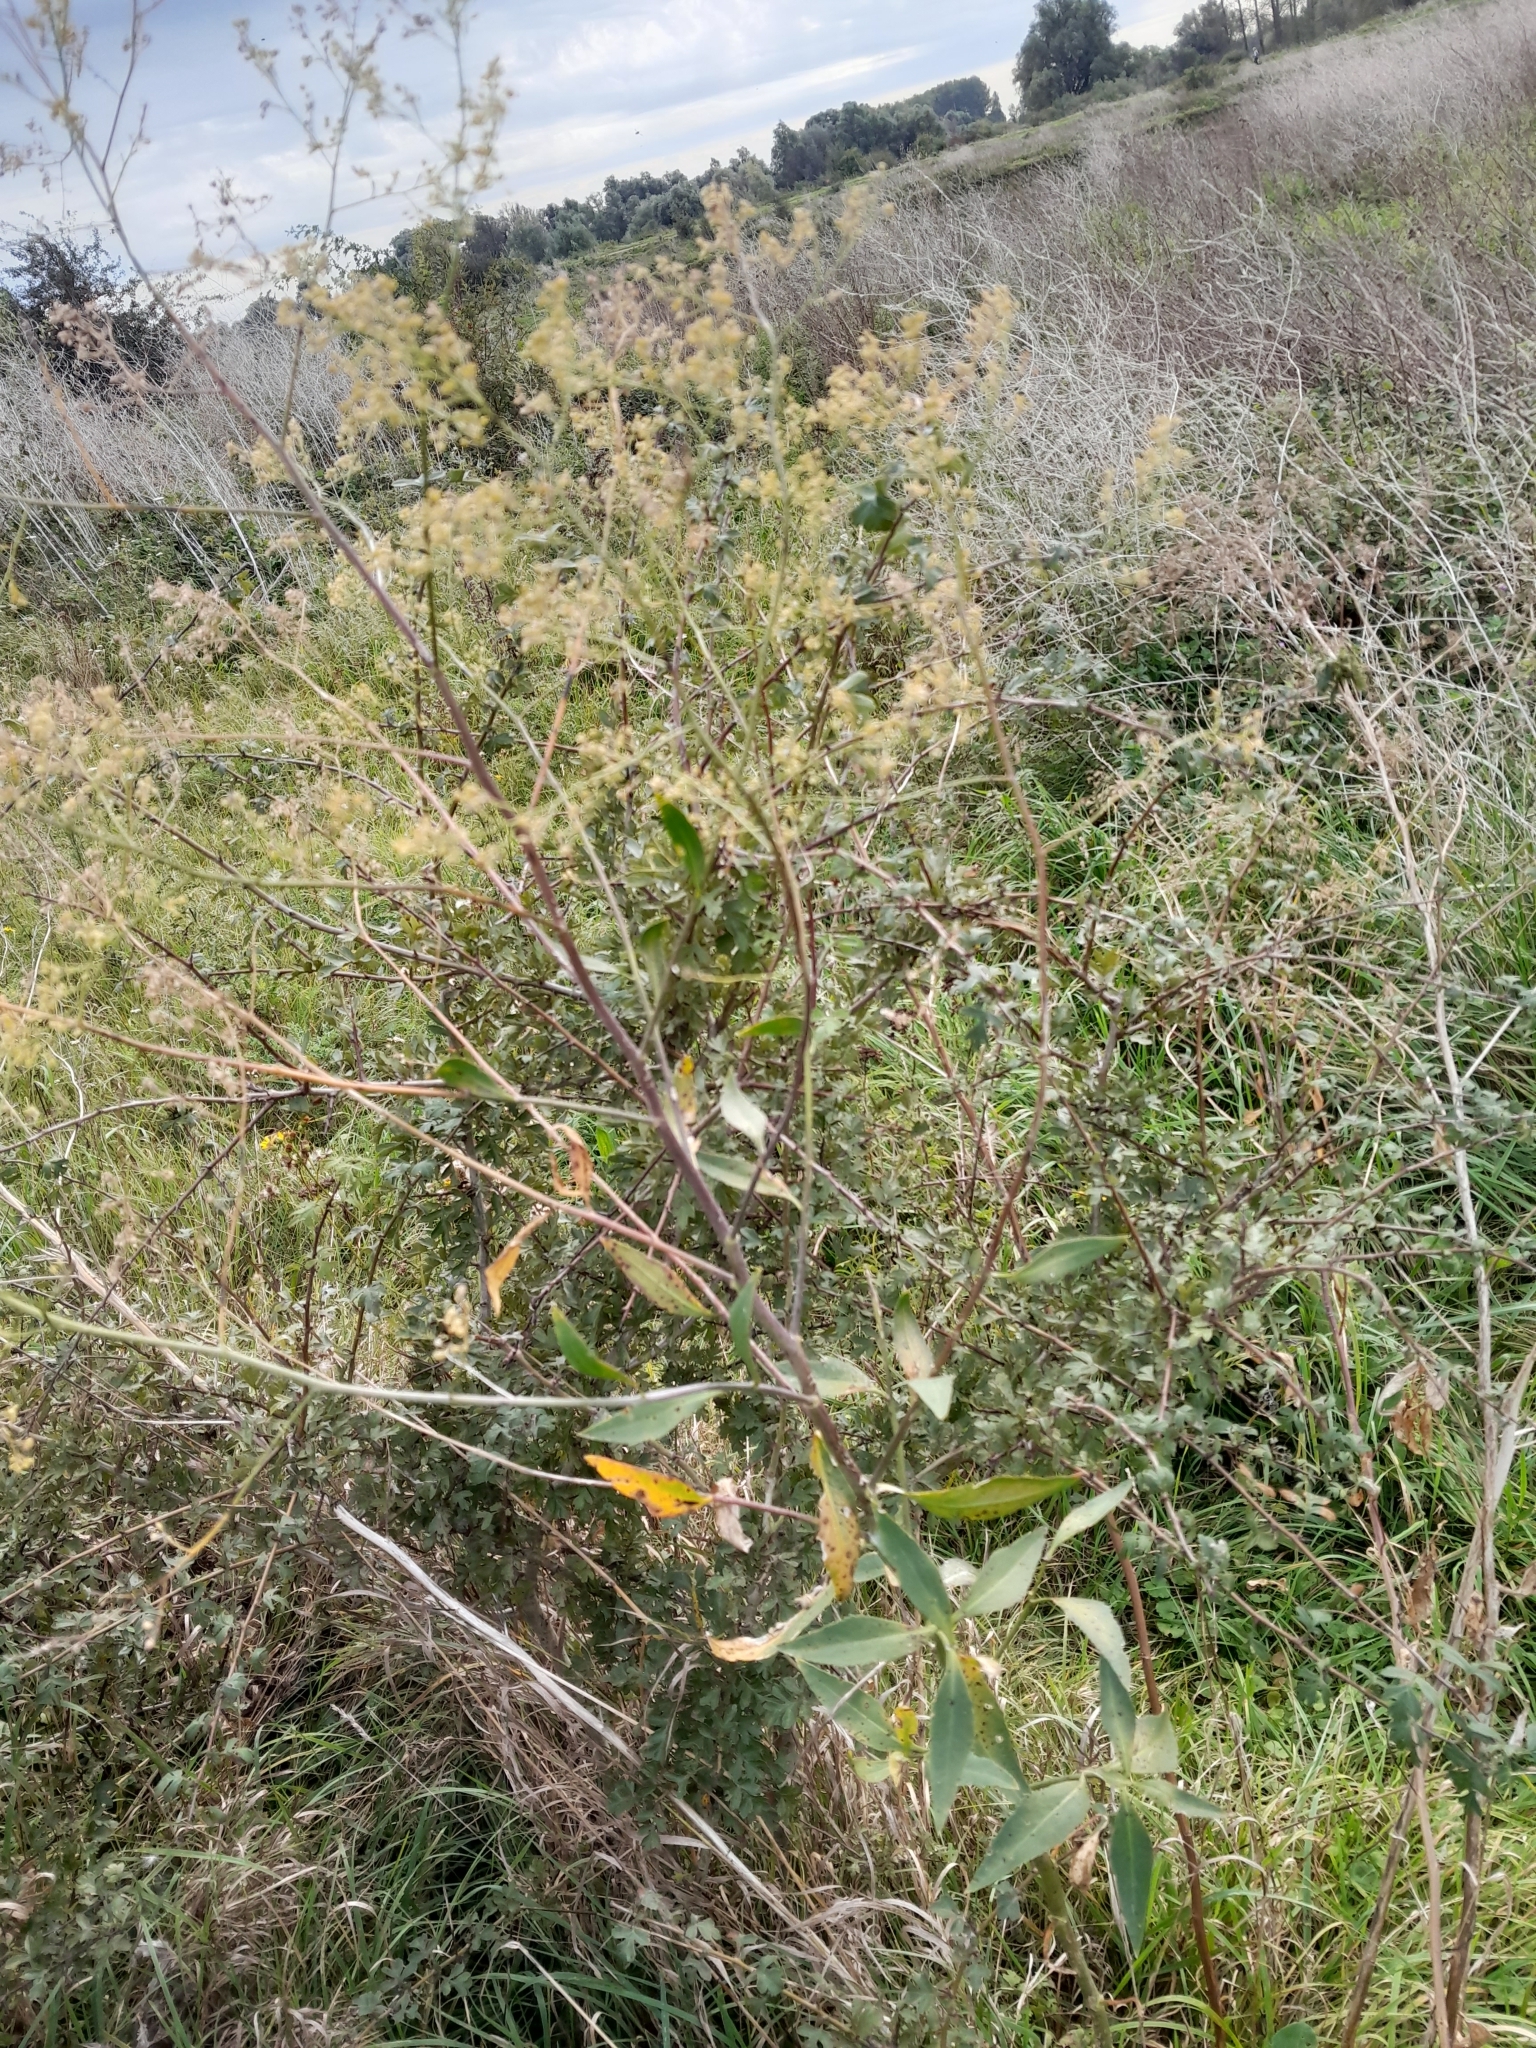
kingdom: Plantae
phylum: Tracheophyta
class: Magnoliopsida
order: Brassicales
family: Brassicaceae
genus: Lepidium
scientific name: Lepidium latifolium
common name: Dittander
